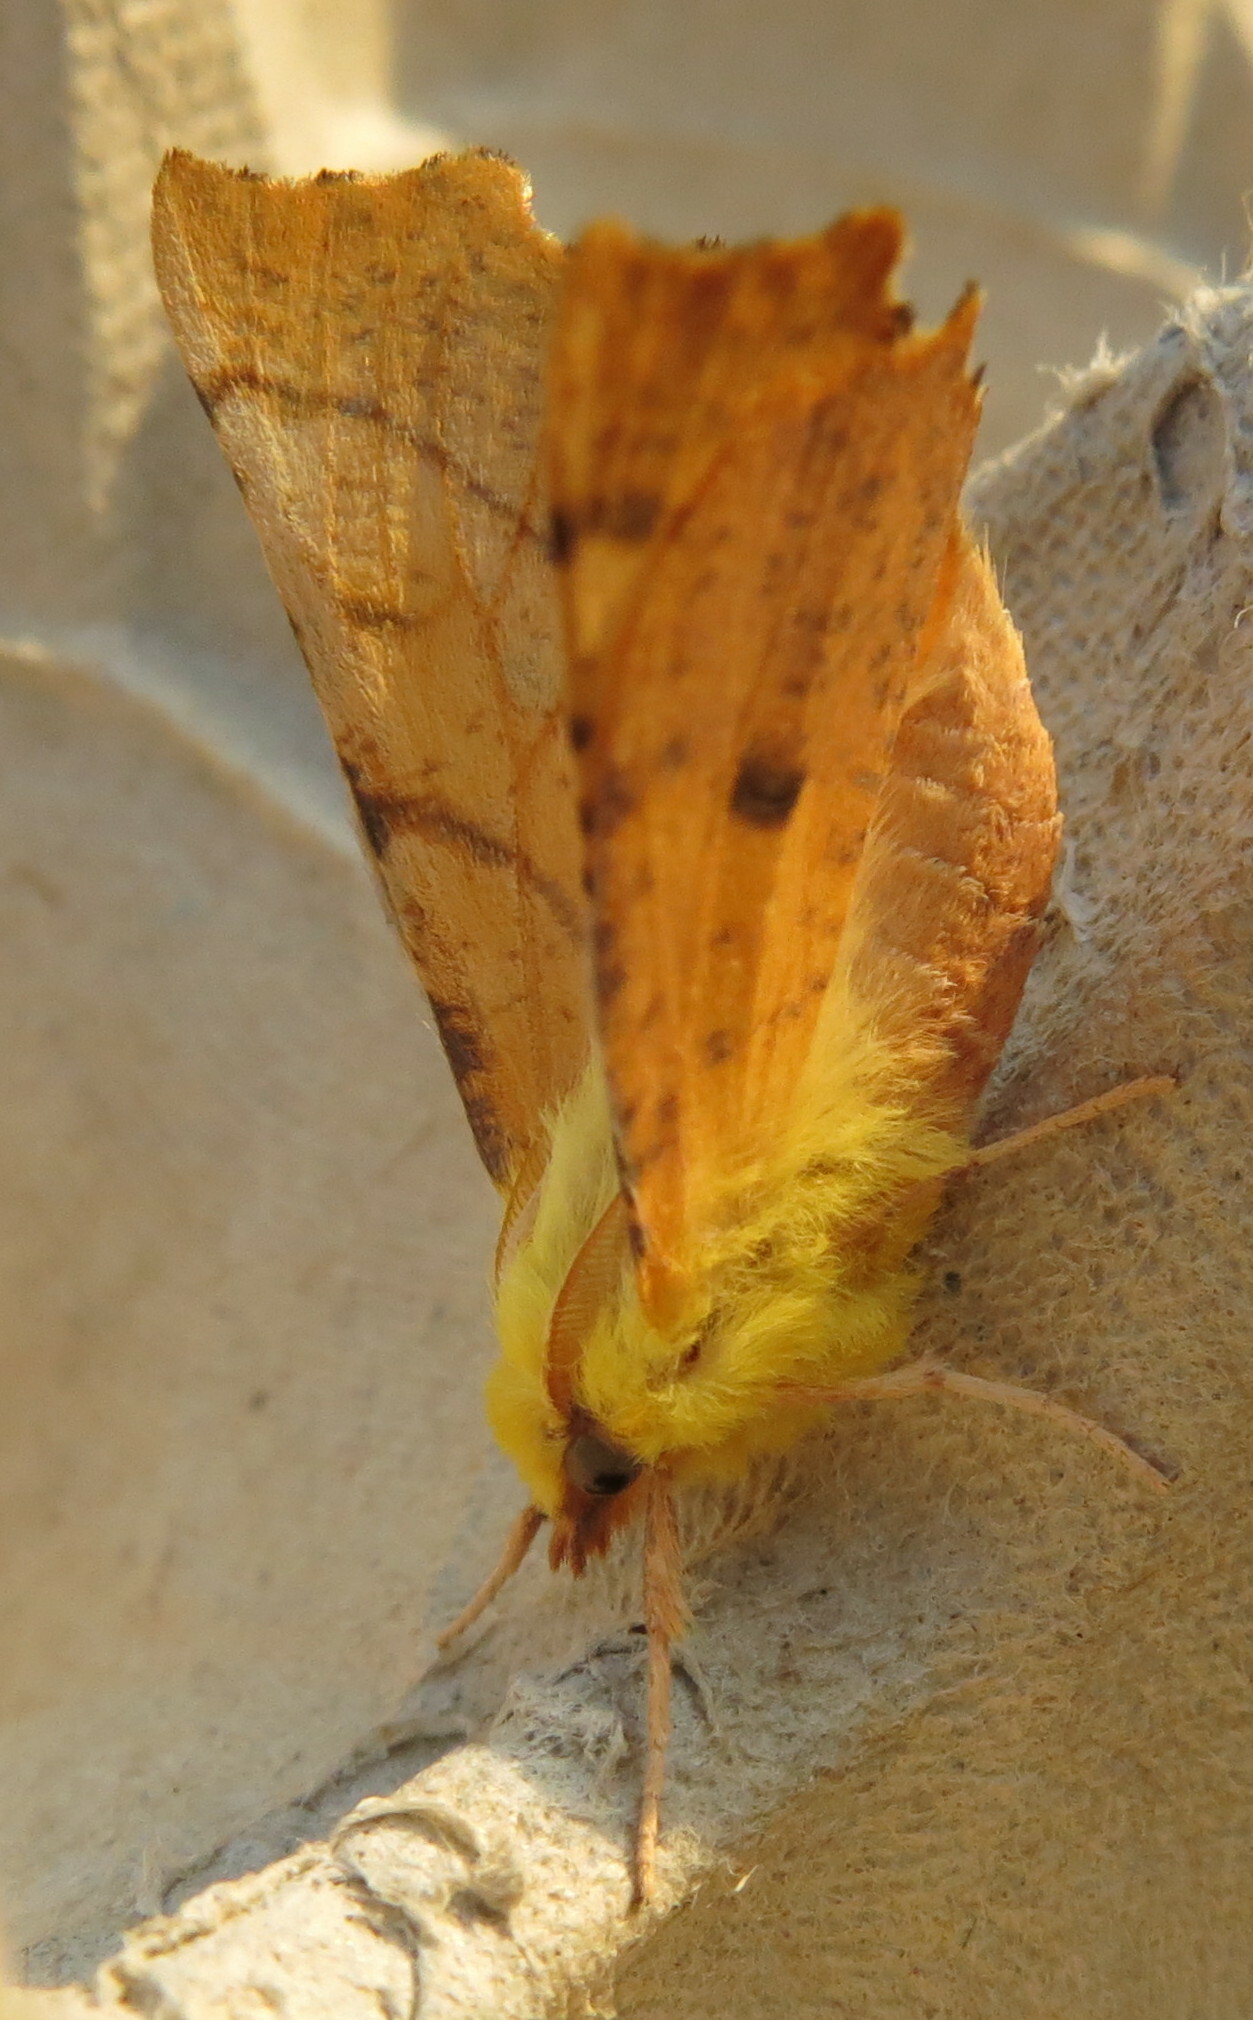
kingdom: Animalia
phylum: Arthropoda
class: Insecta
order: Lepidoptera
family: Geometridae
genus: Ennomos
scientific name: Ennomos alniaria
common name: Canary-shouldered thorn
